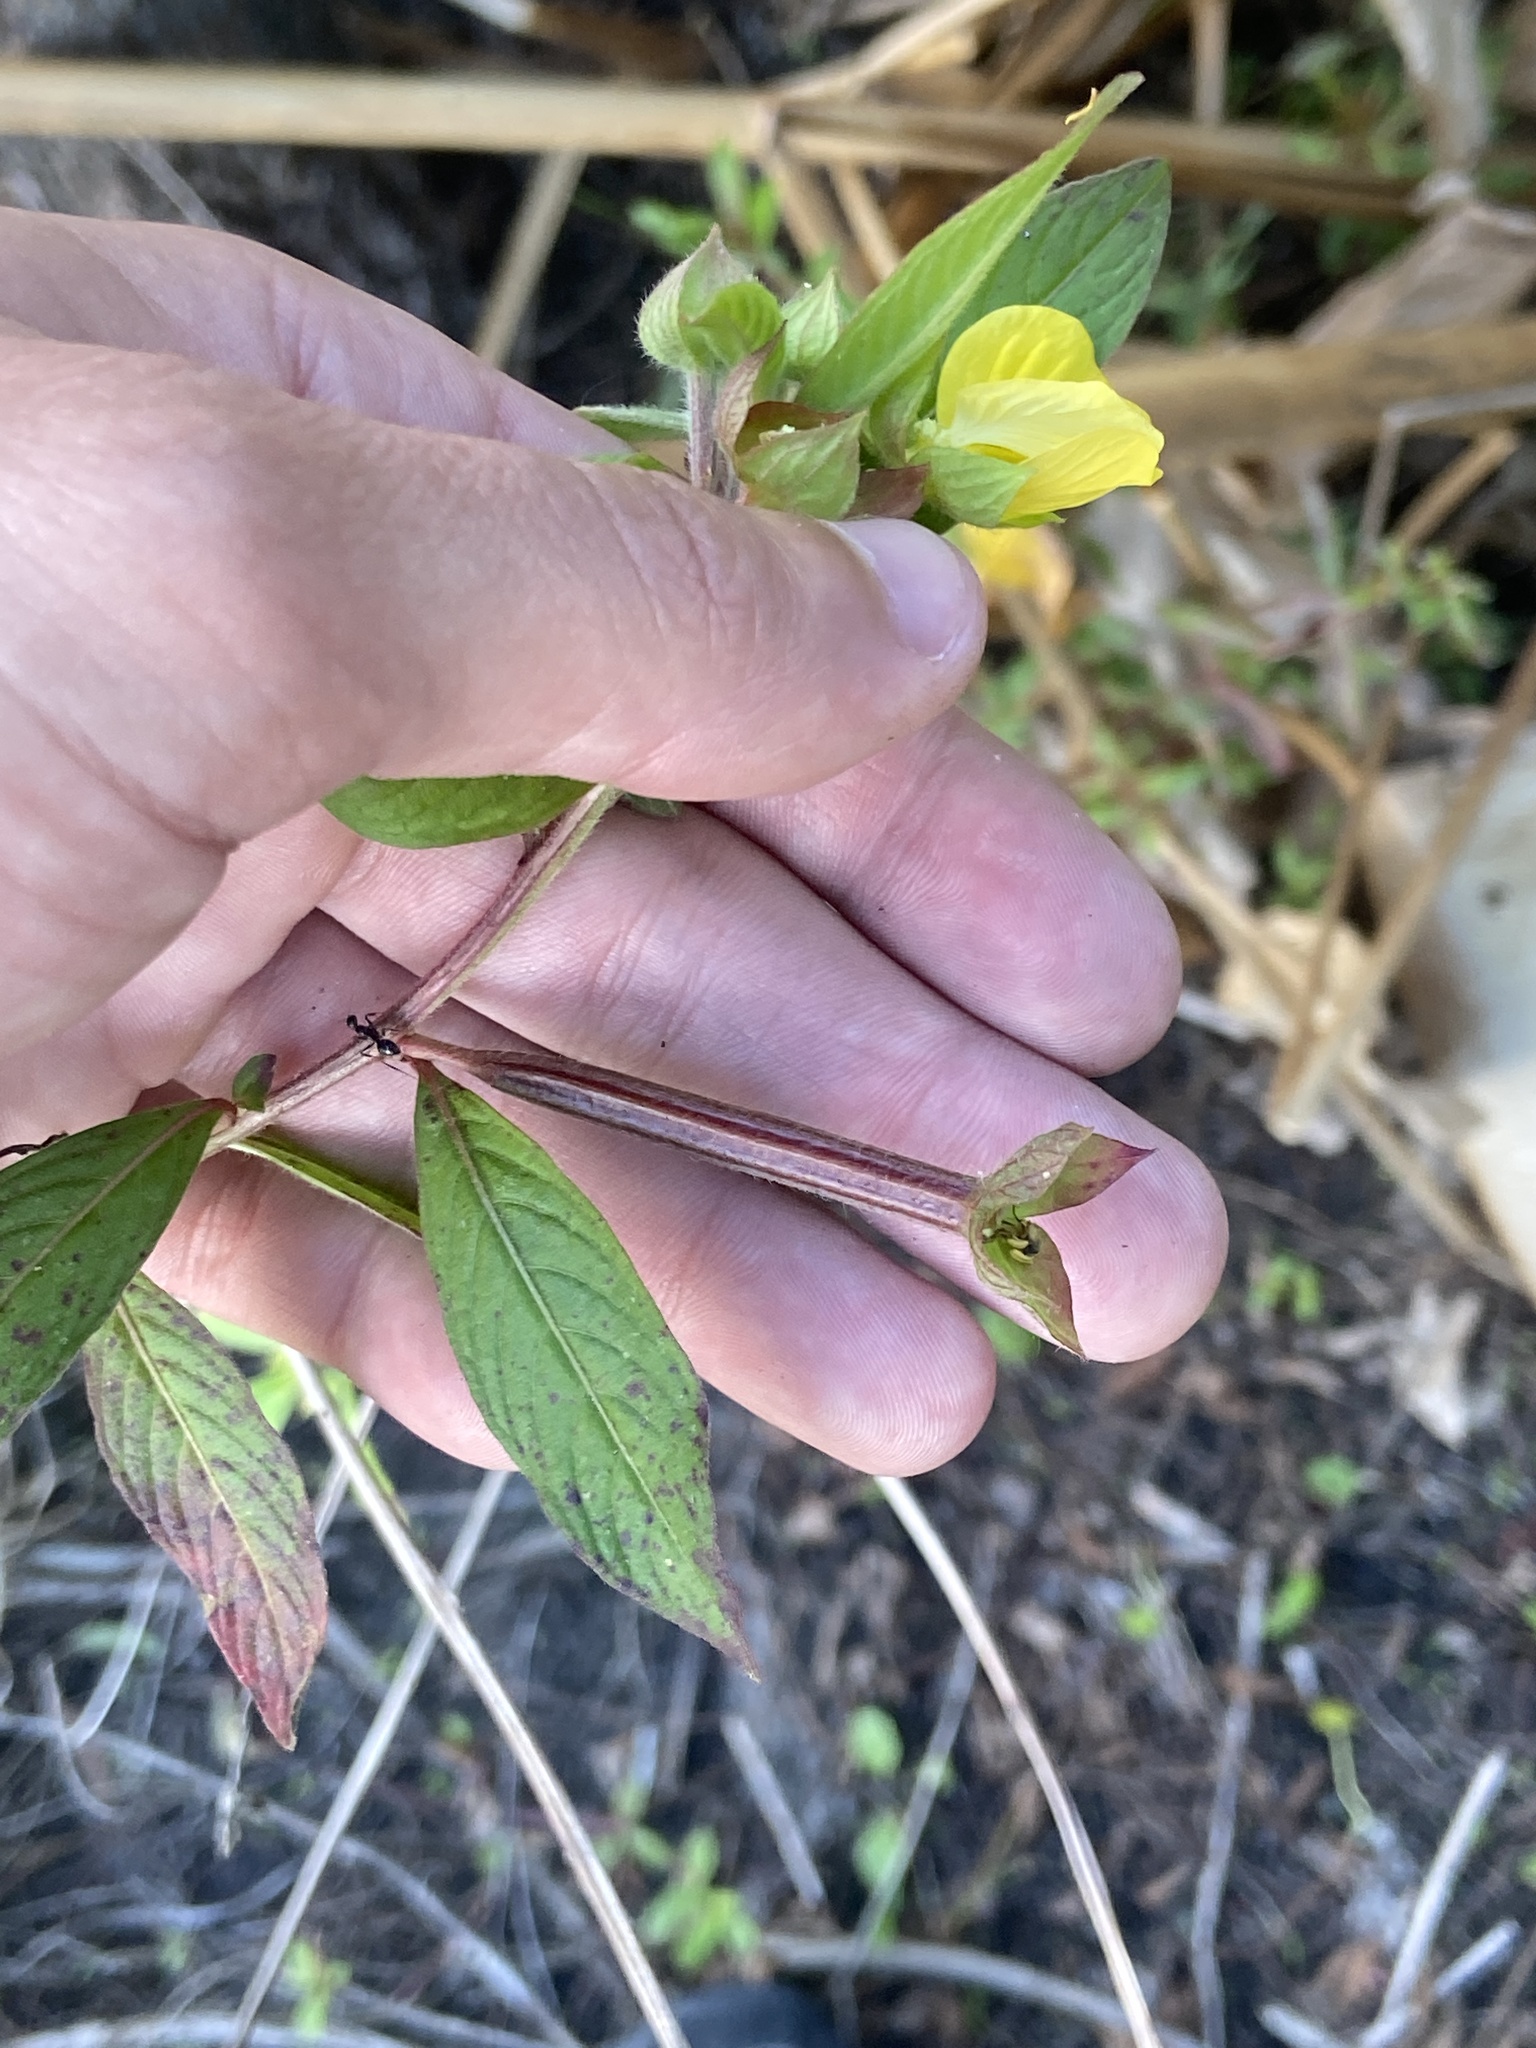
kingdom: Plantae
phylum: Tracheophyta
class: Magnoliopsida
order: Myrtales
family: Onagraceae
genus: Ludwigia
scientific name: Ludwigia octovalvis
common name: Water-primrose
